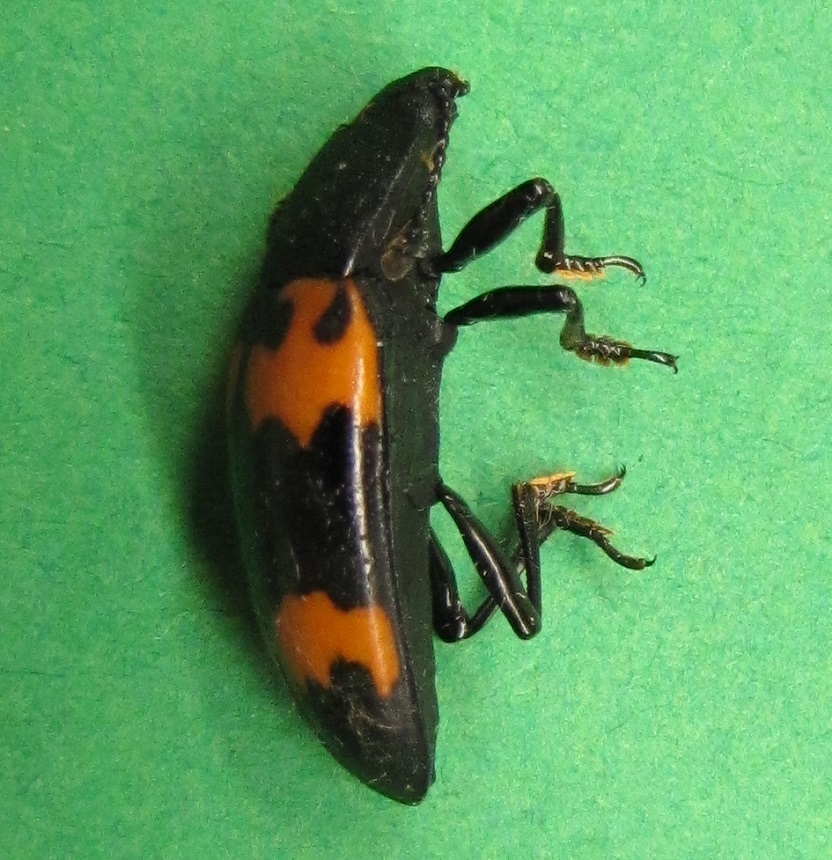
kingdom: Animalia
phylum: Arthropoda
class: Insecta
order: Coleoptera
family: Erotylidae
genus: Megalodacne
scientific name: Megalodacne heros
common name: Pleasing fungus beetle
